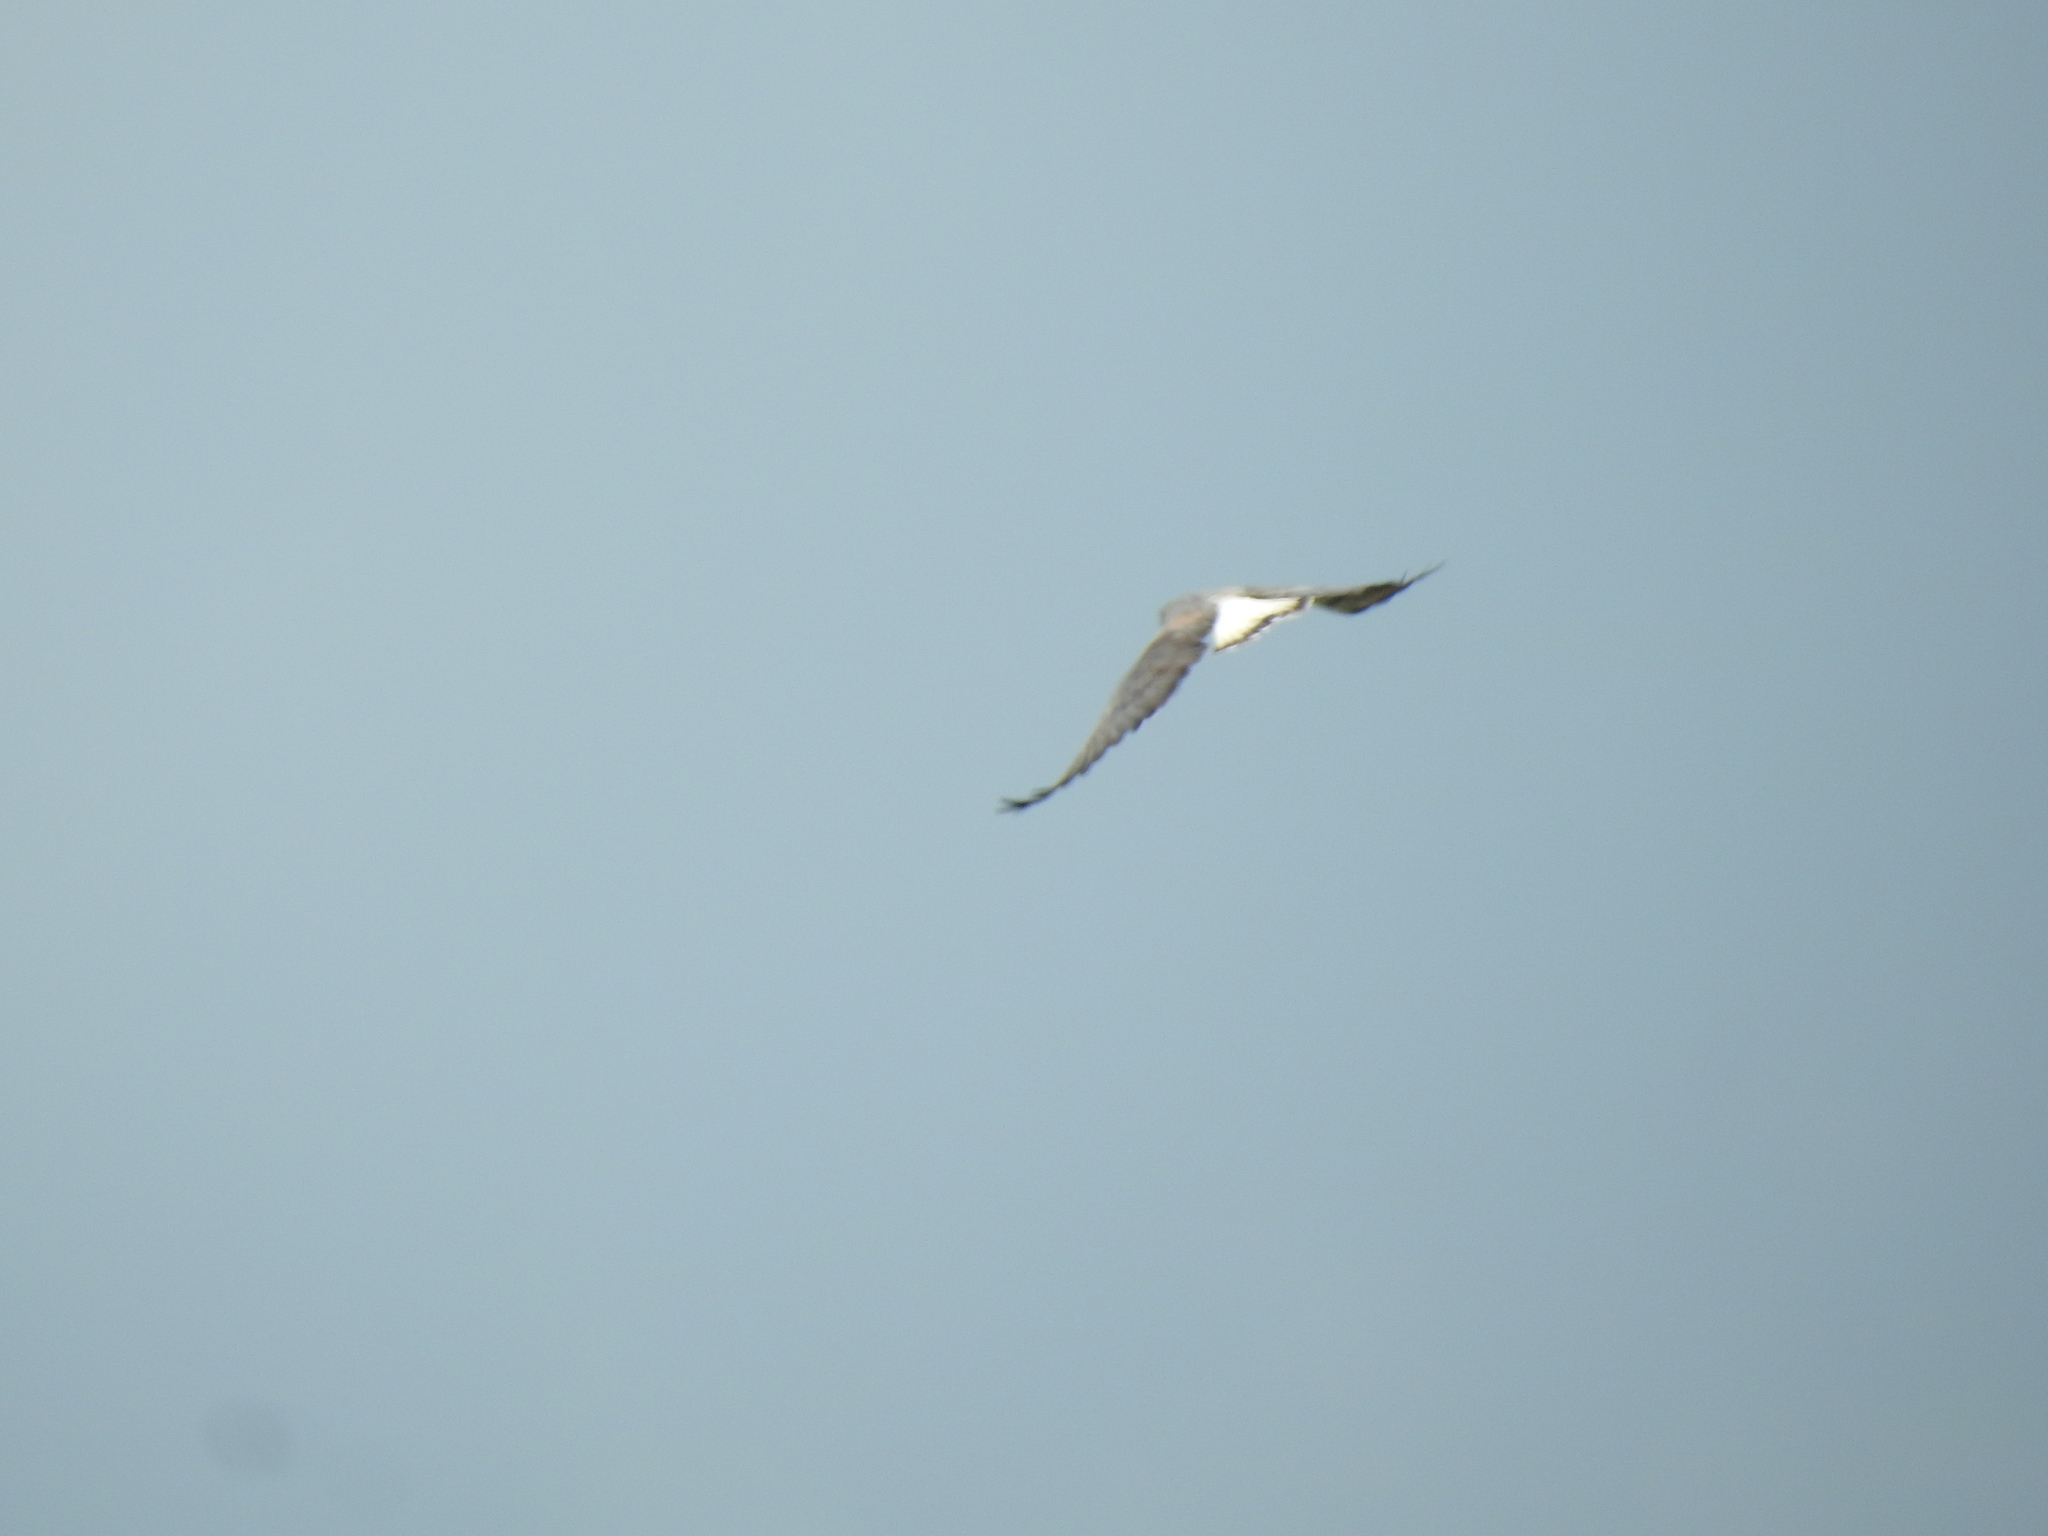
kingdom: Animalia
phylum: Chordata
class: Aves
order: Accipitriformes
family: Accipitridae
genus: Buteo
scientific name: Buteo albicaudatus
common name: White-tailed hawk
